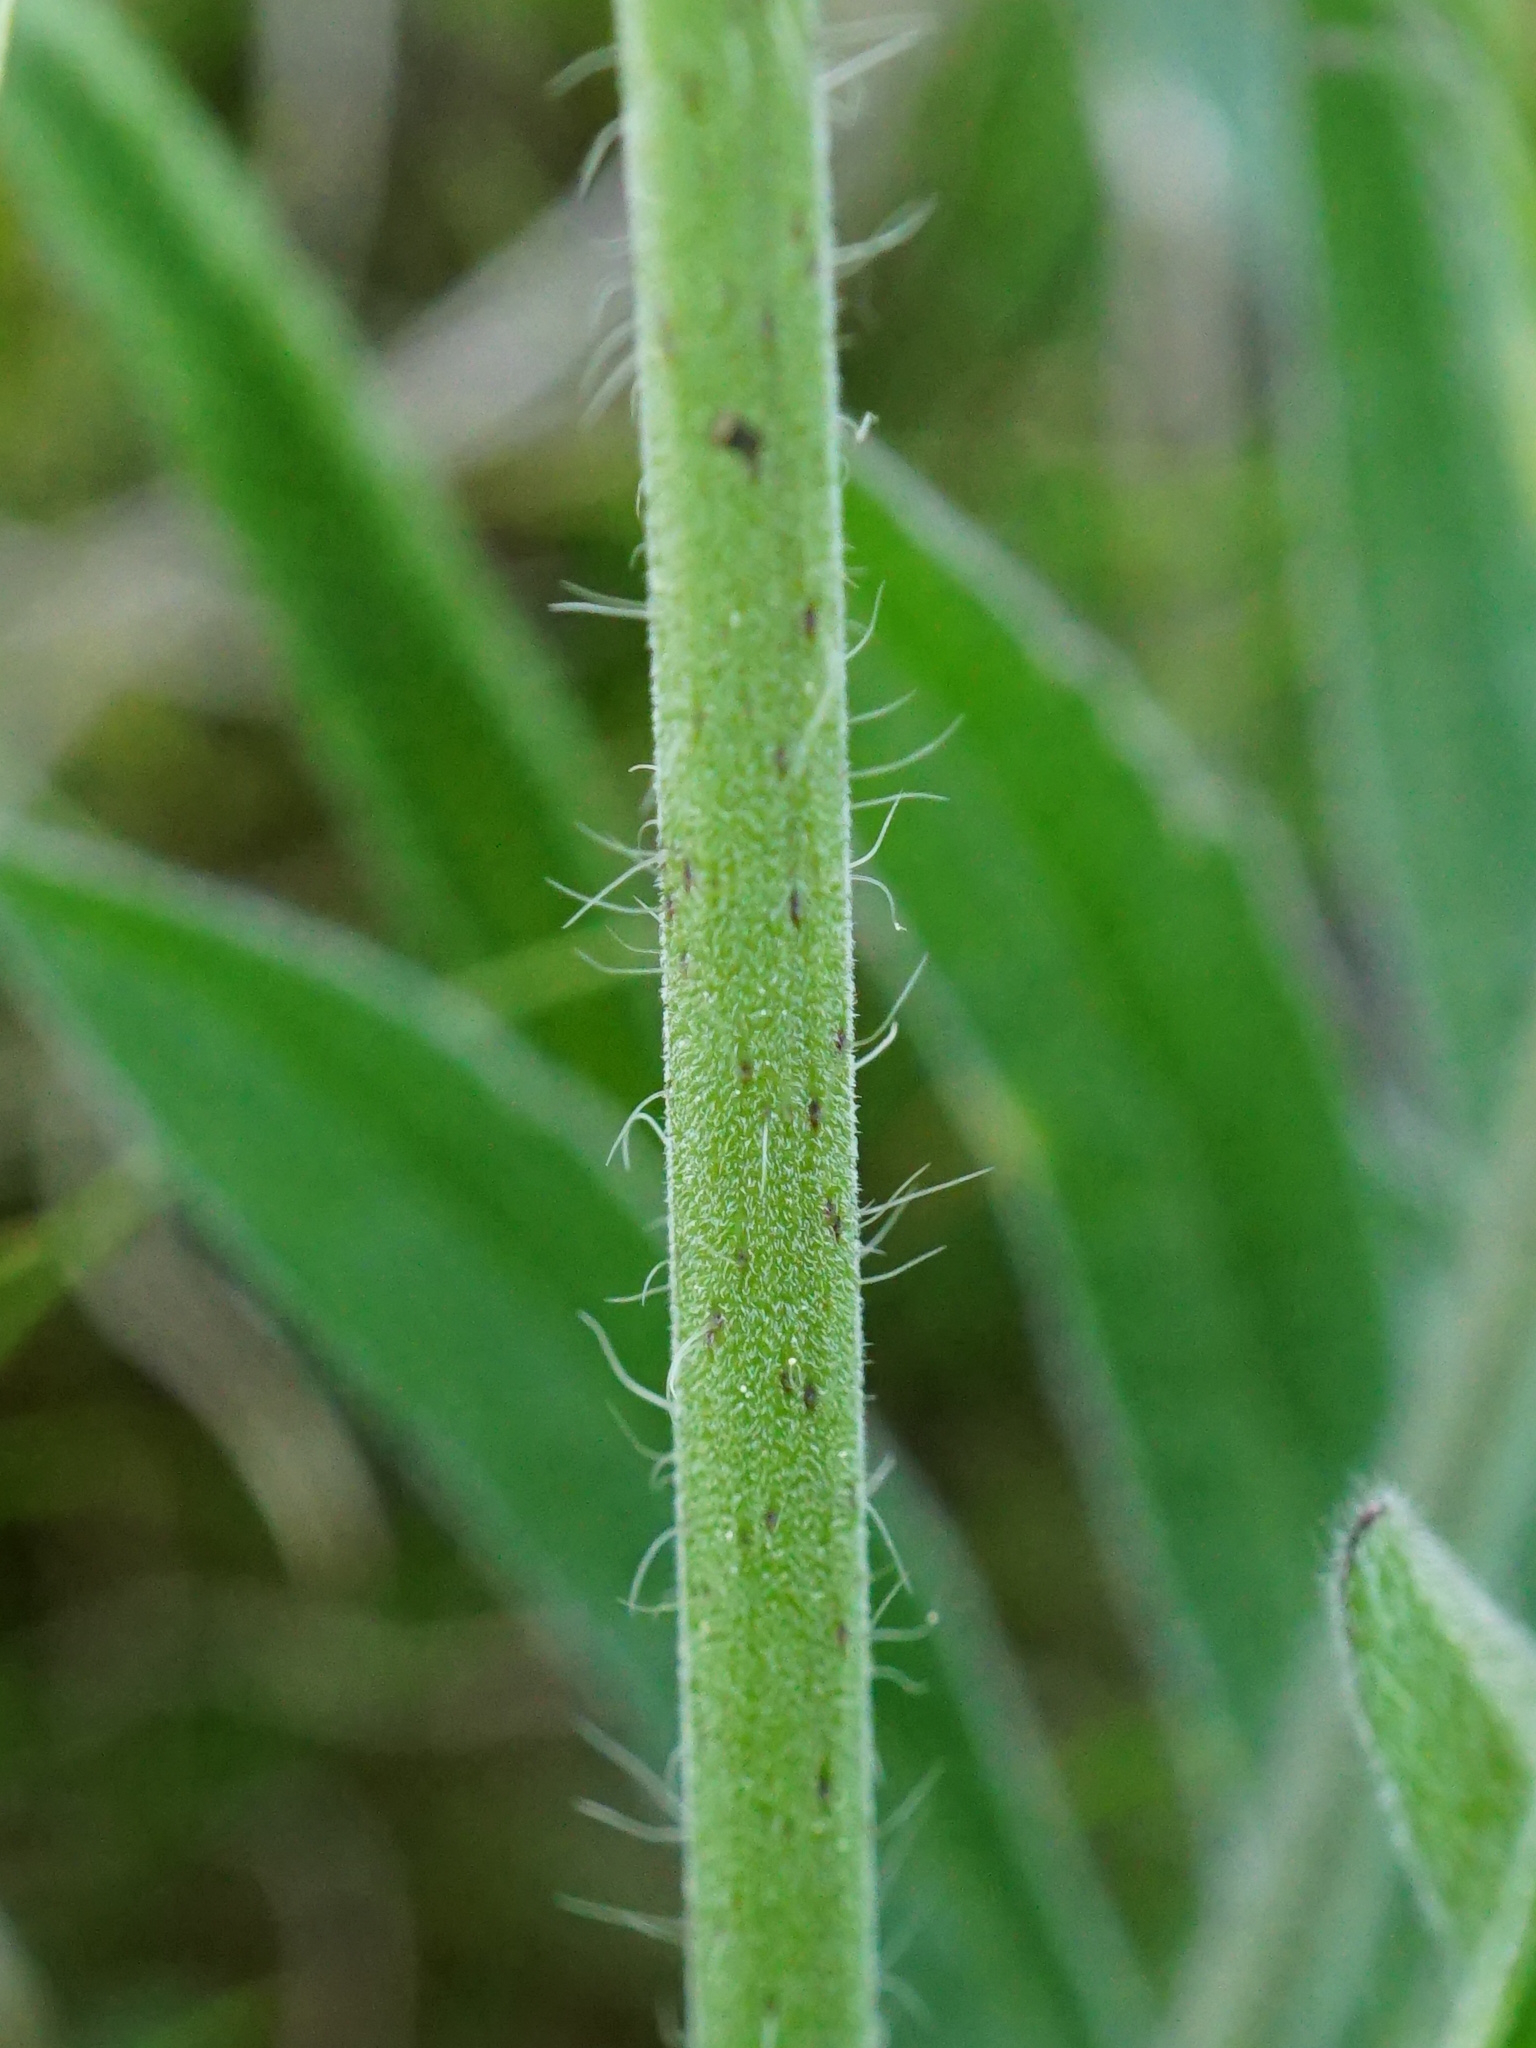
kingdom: Plantae
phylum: Tracheophyta
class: Magnoliopsida
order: Dipsacales
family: Caprifoliaceae
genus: Knautia
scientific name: Knautia arvensis
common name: Field scabiosa
